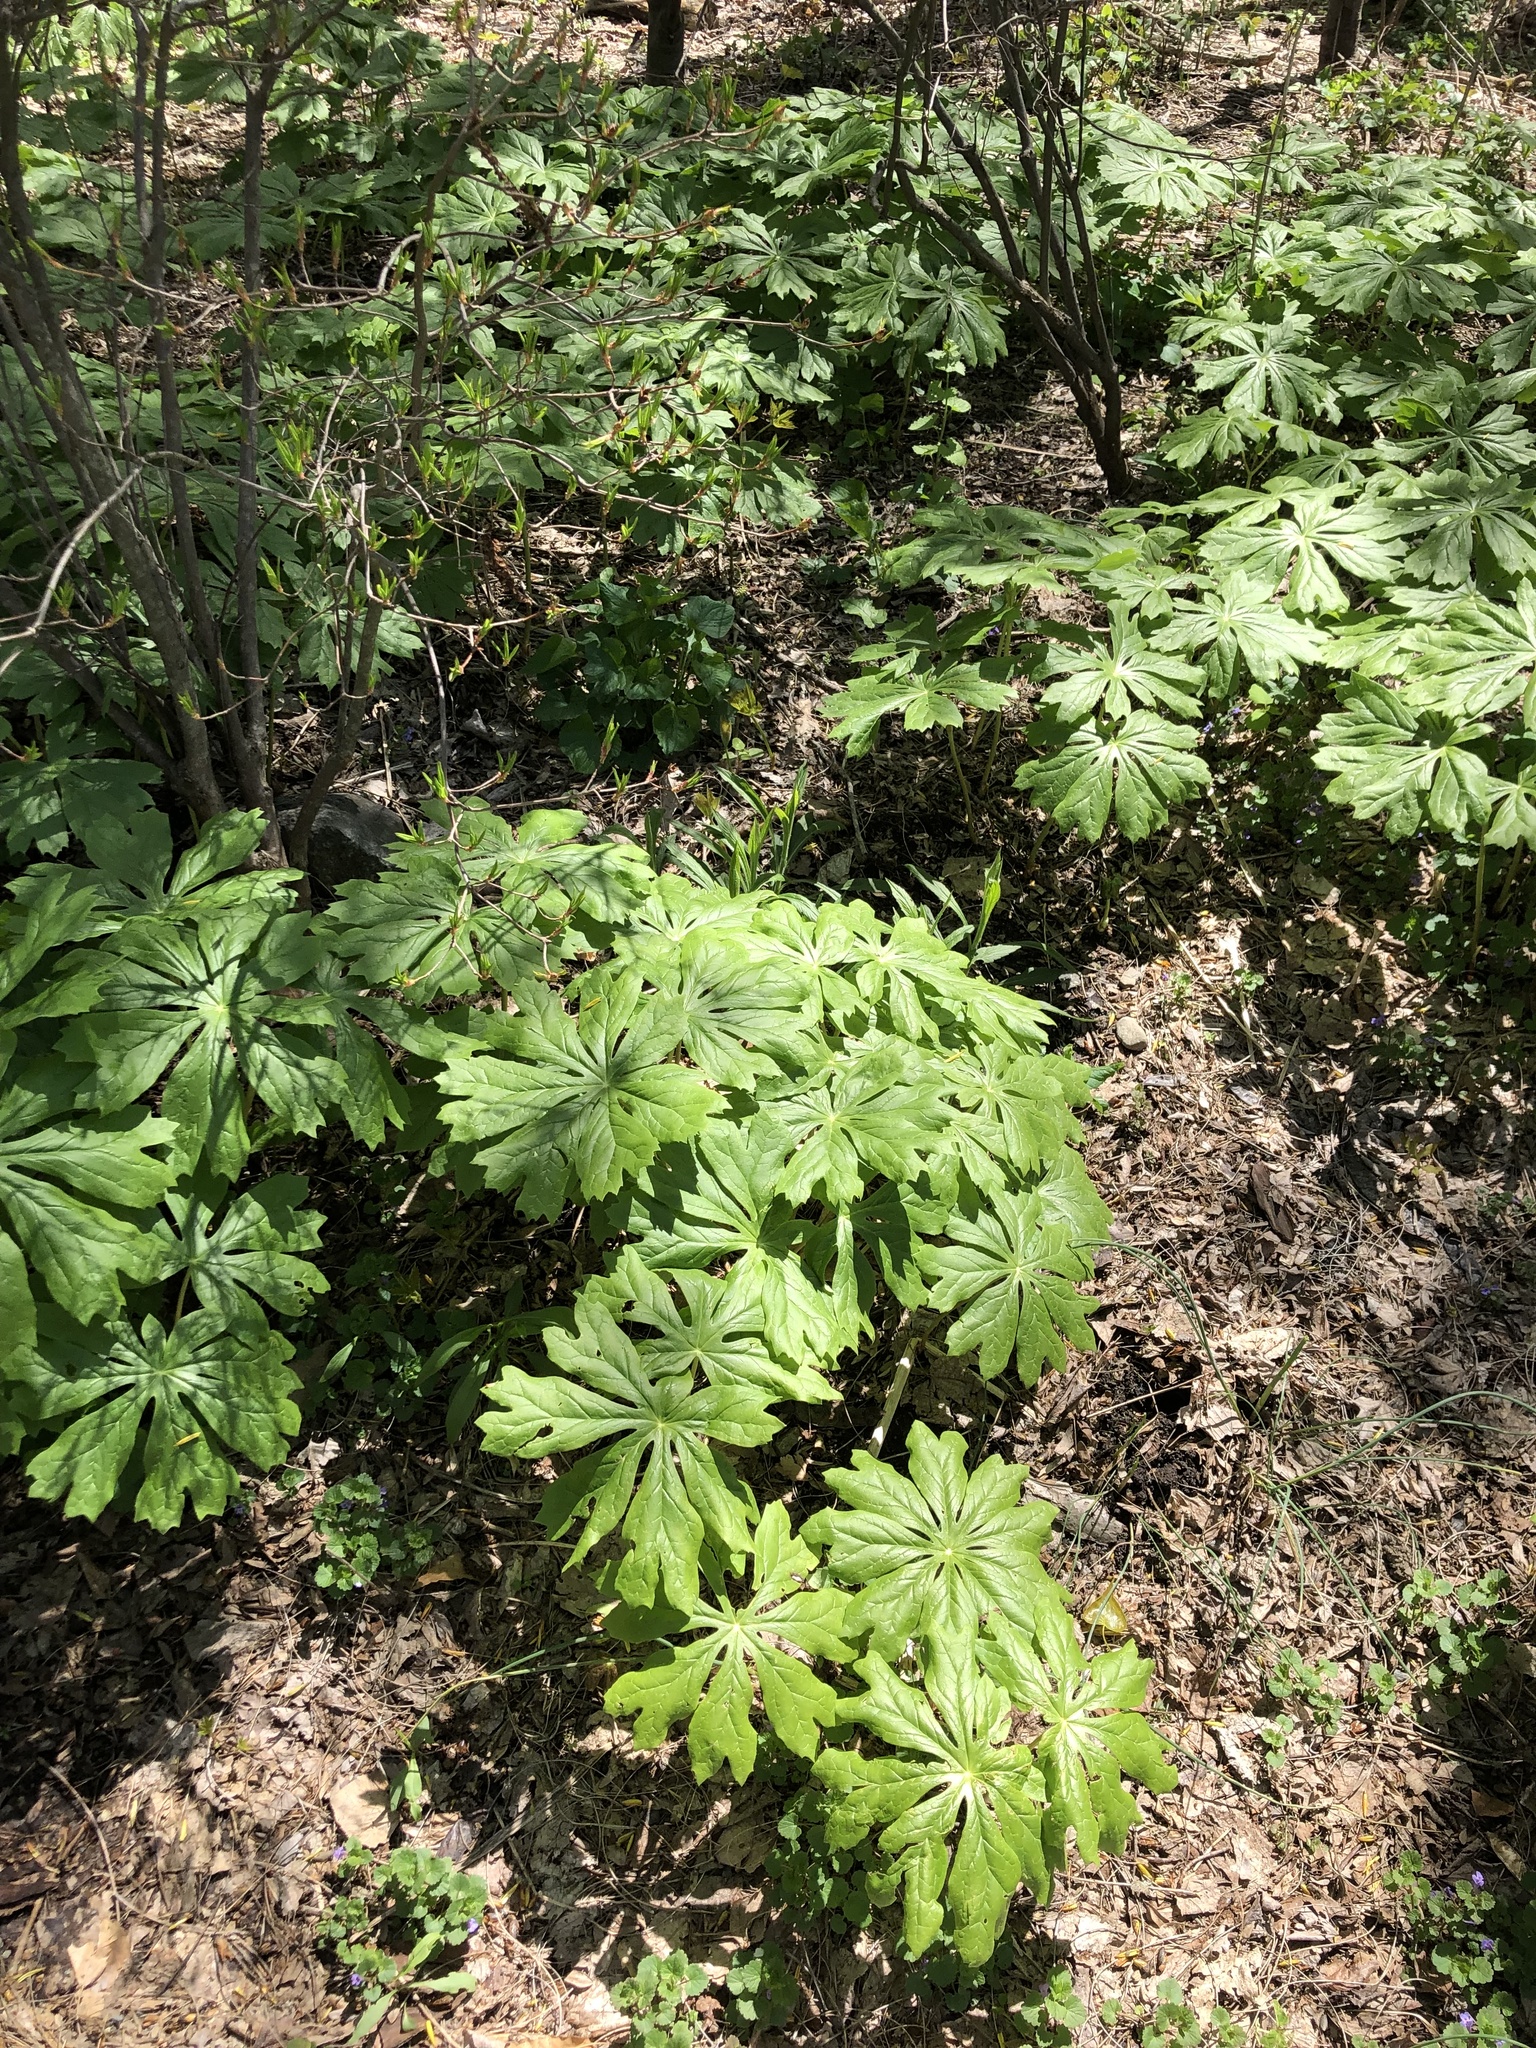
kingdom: Plantae
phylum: Tracheophyta
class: Magnoliopsida
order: Ranunculales
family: Berberidaceae
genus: Podophyllum
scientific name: Podophyllum peltatum
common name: Wild mandrake
